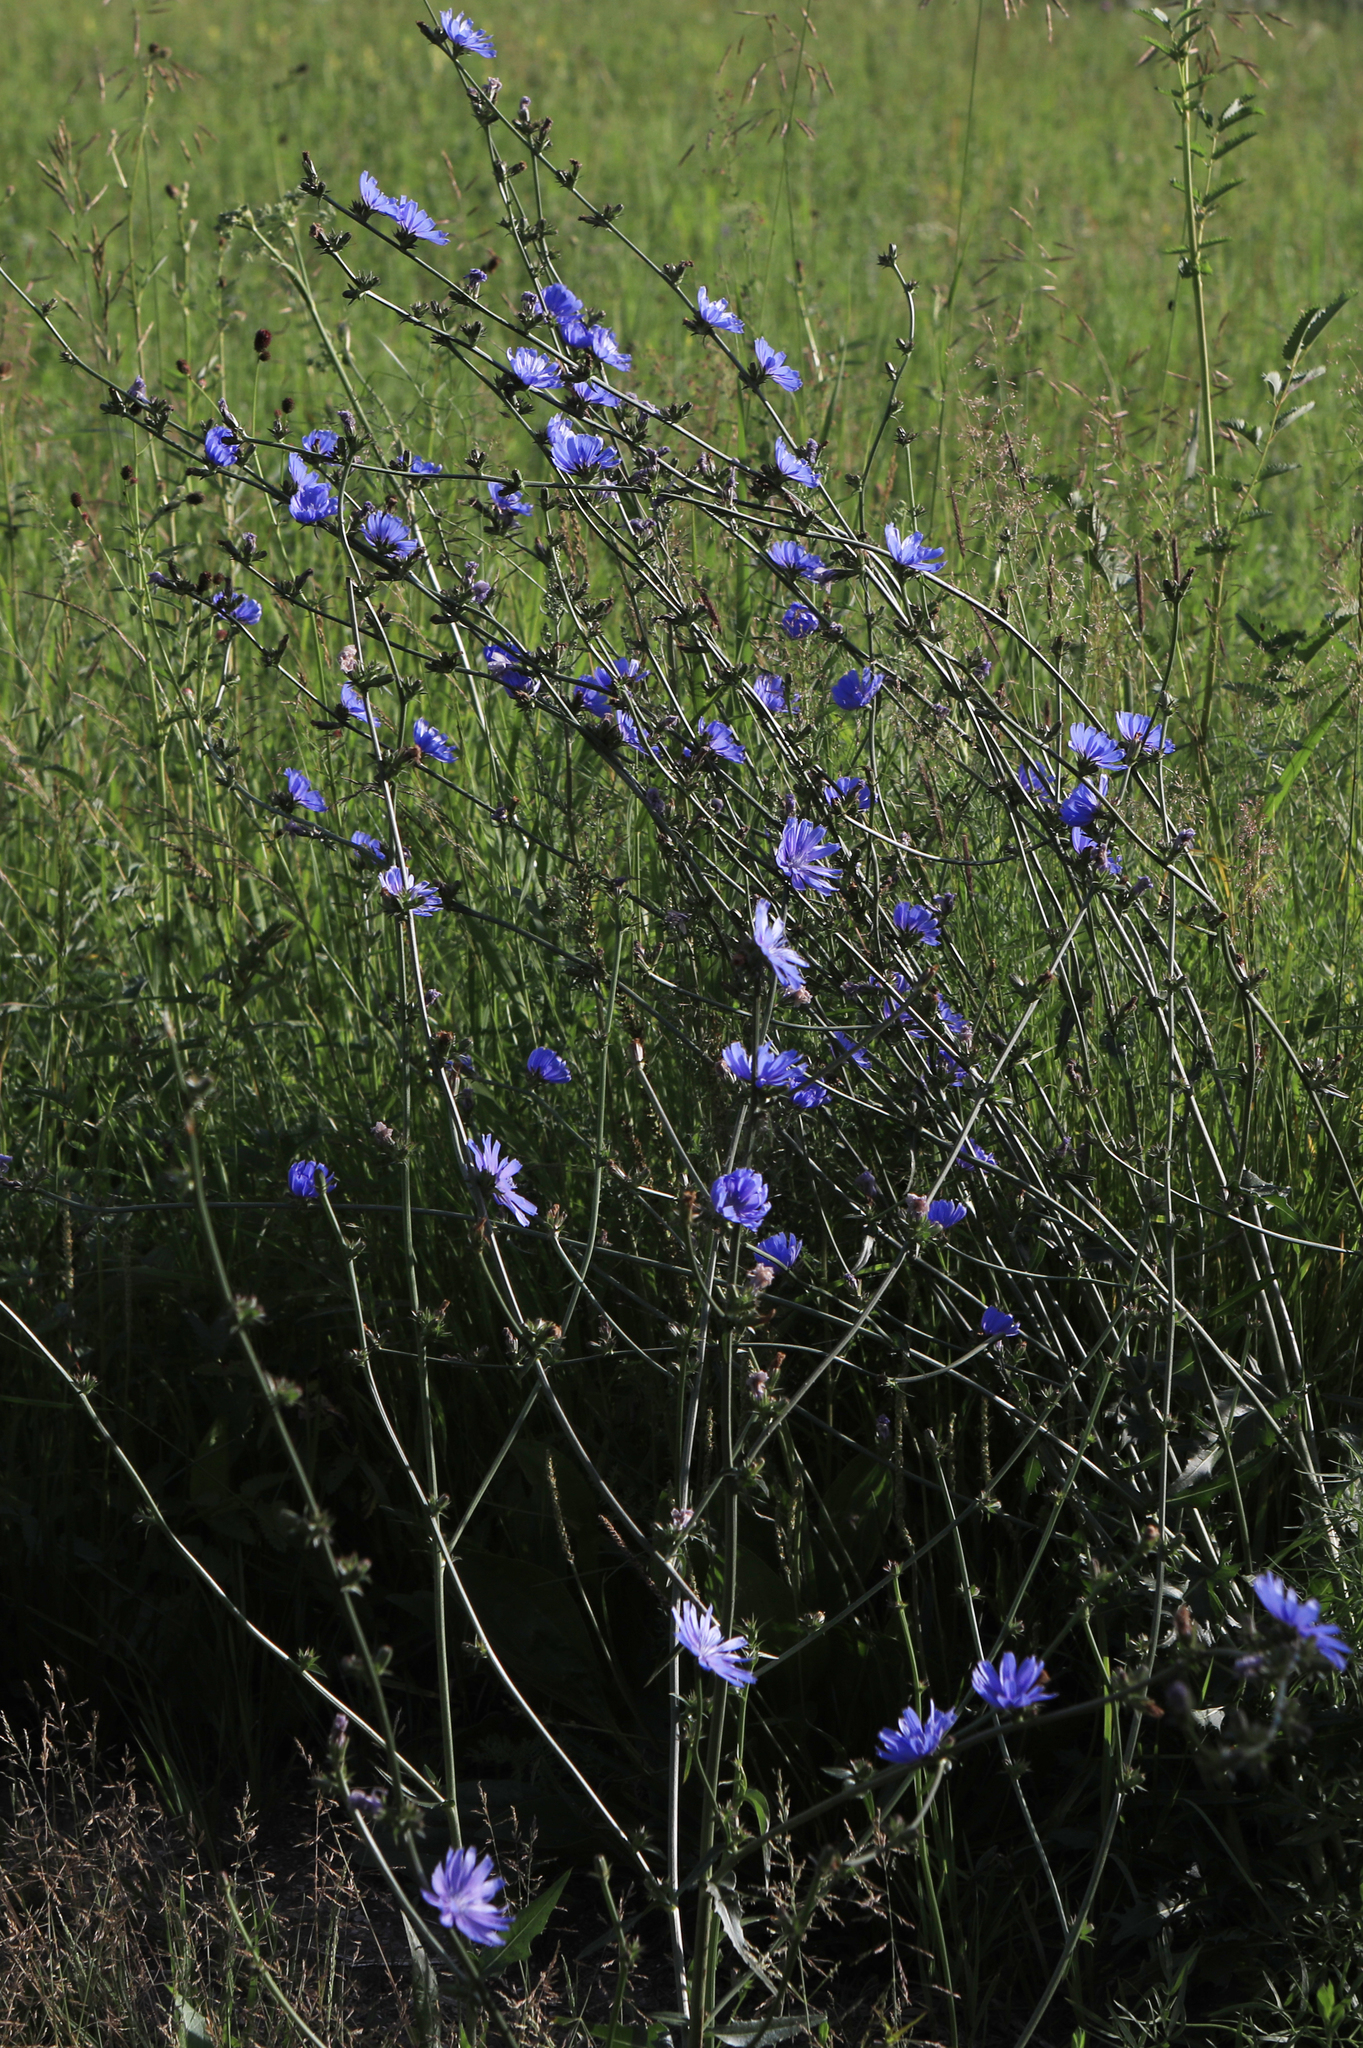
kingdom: Plantae
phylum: Tracheophyta
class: Magnoliopsida
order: Asterales
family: Asteraceae
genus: Cichorium
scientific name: Cichorium intybus
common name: Chicory
